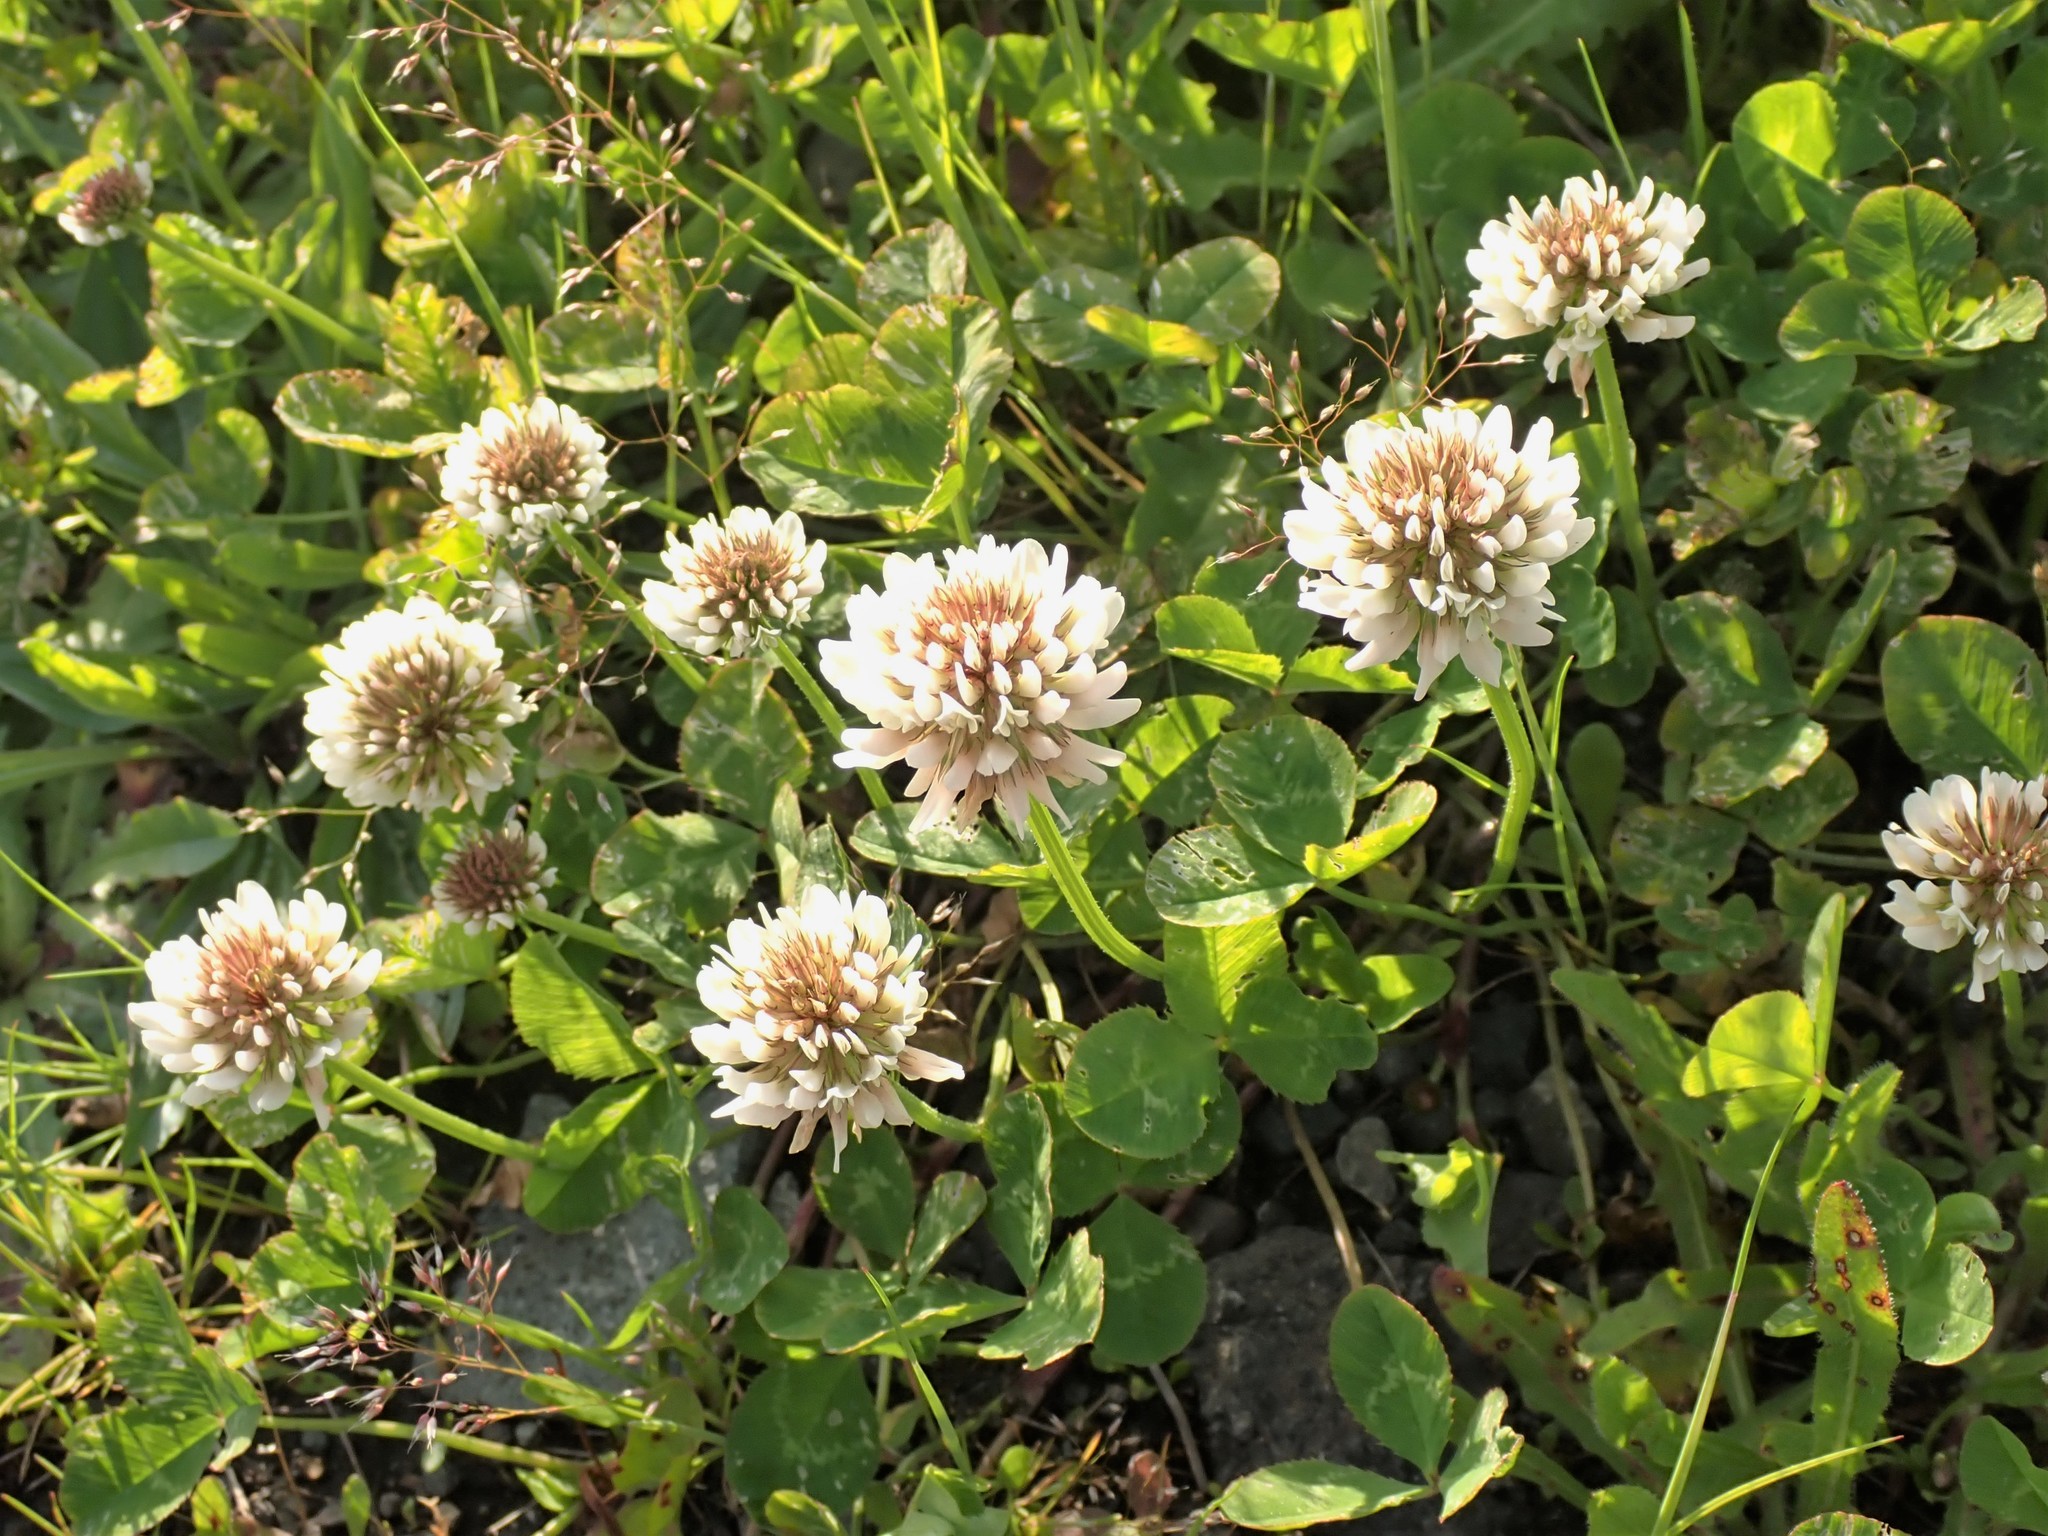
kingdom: Plantae
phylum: Tracheophyta
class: Magnoliopsida
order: Fabales
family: Fabaceae
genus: Trifolium
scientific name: Trifolium repens
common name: White clover
